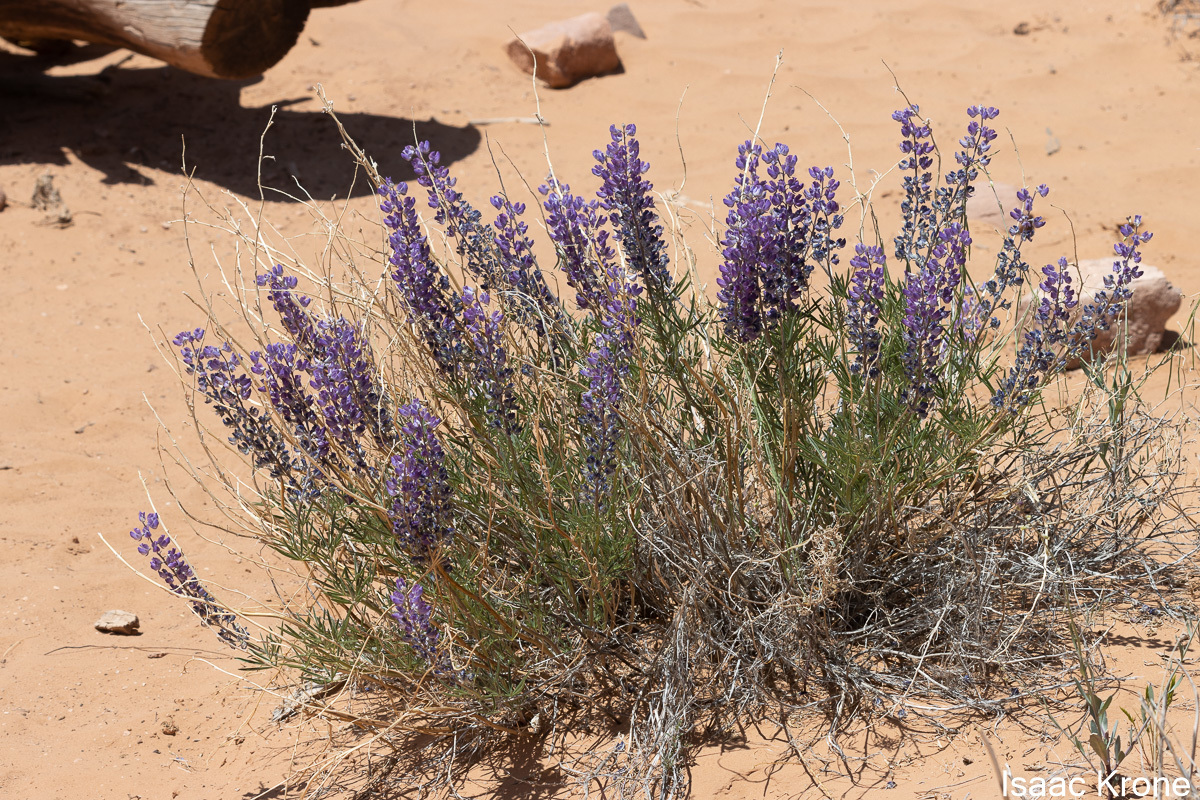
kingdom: Plantae
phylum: Tracheophyta
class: Magnoliopsida
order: Fabales
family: Fabaceae
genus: Lupinus
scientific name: Lupinus argenteus
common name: Silvery lupine
